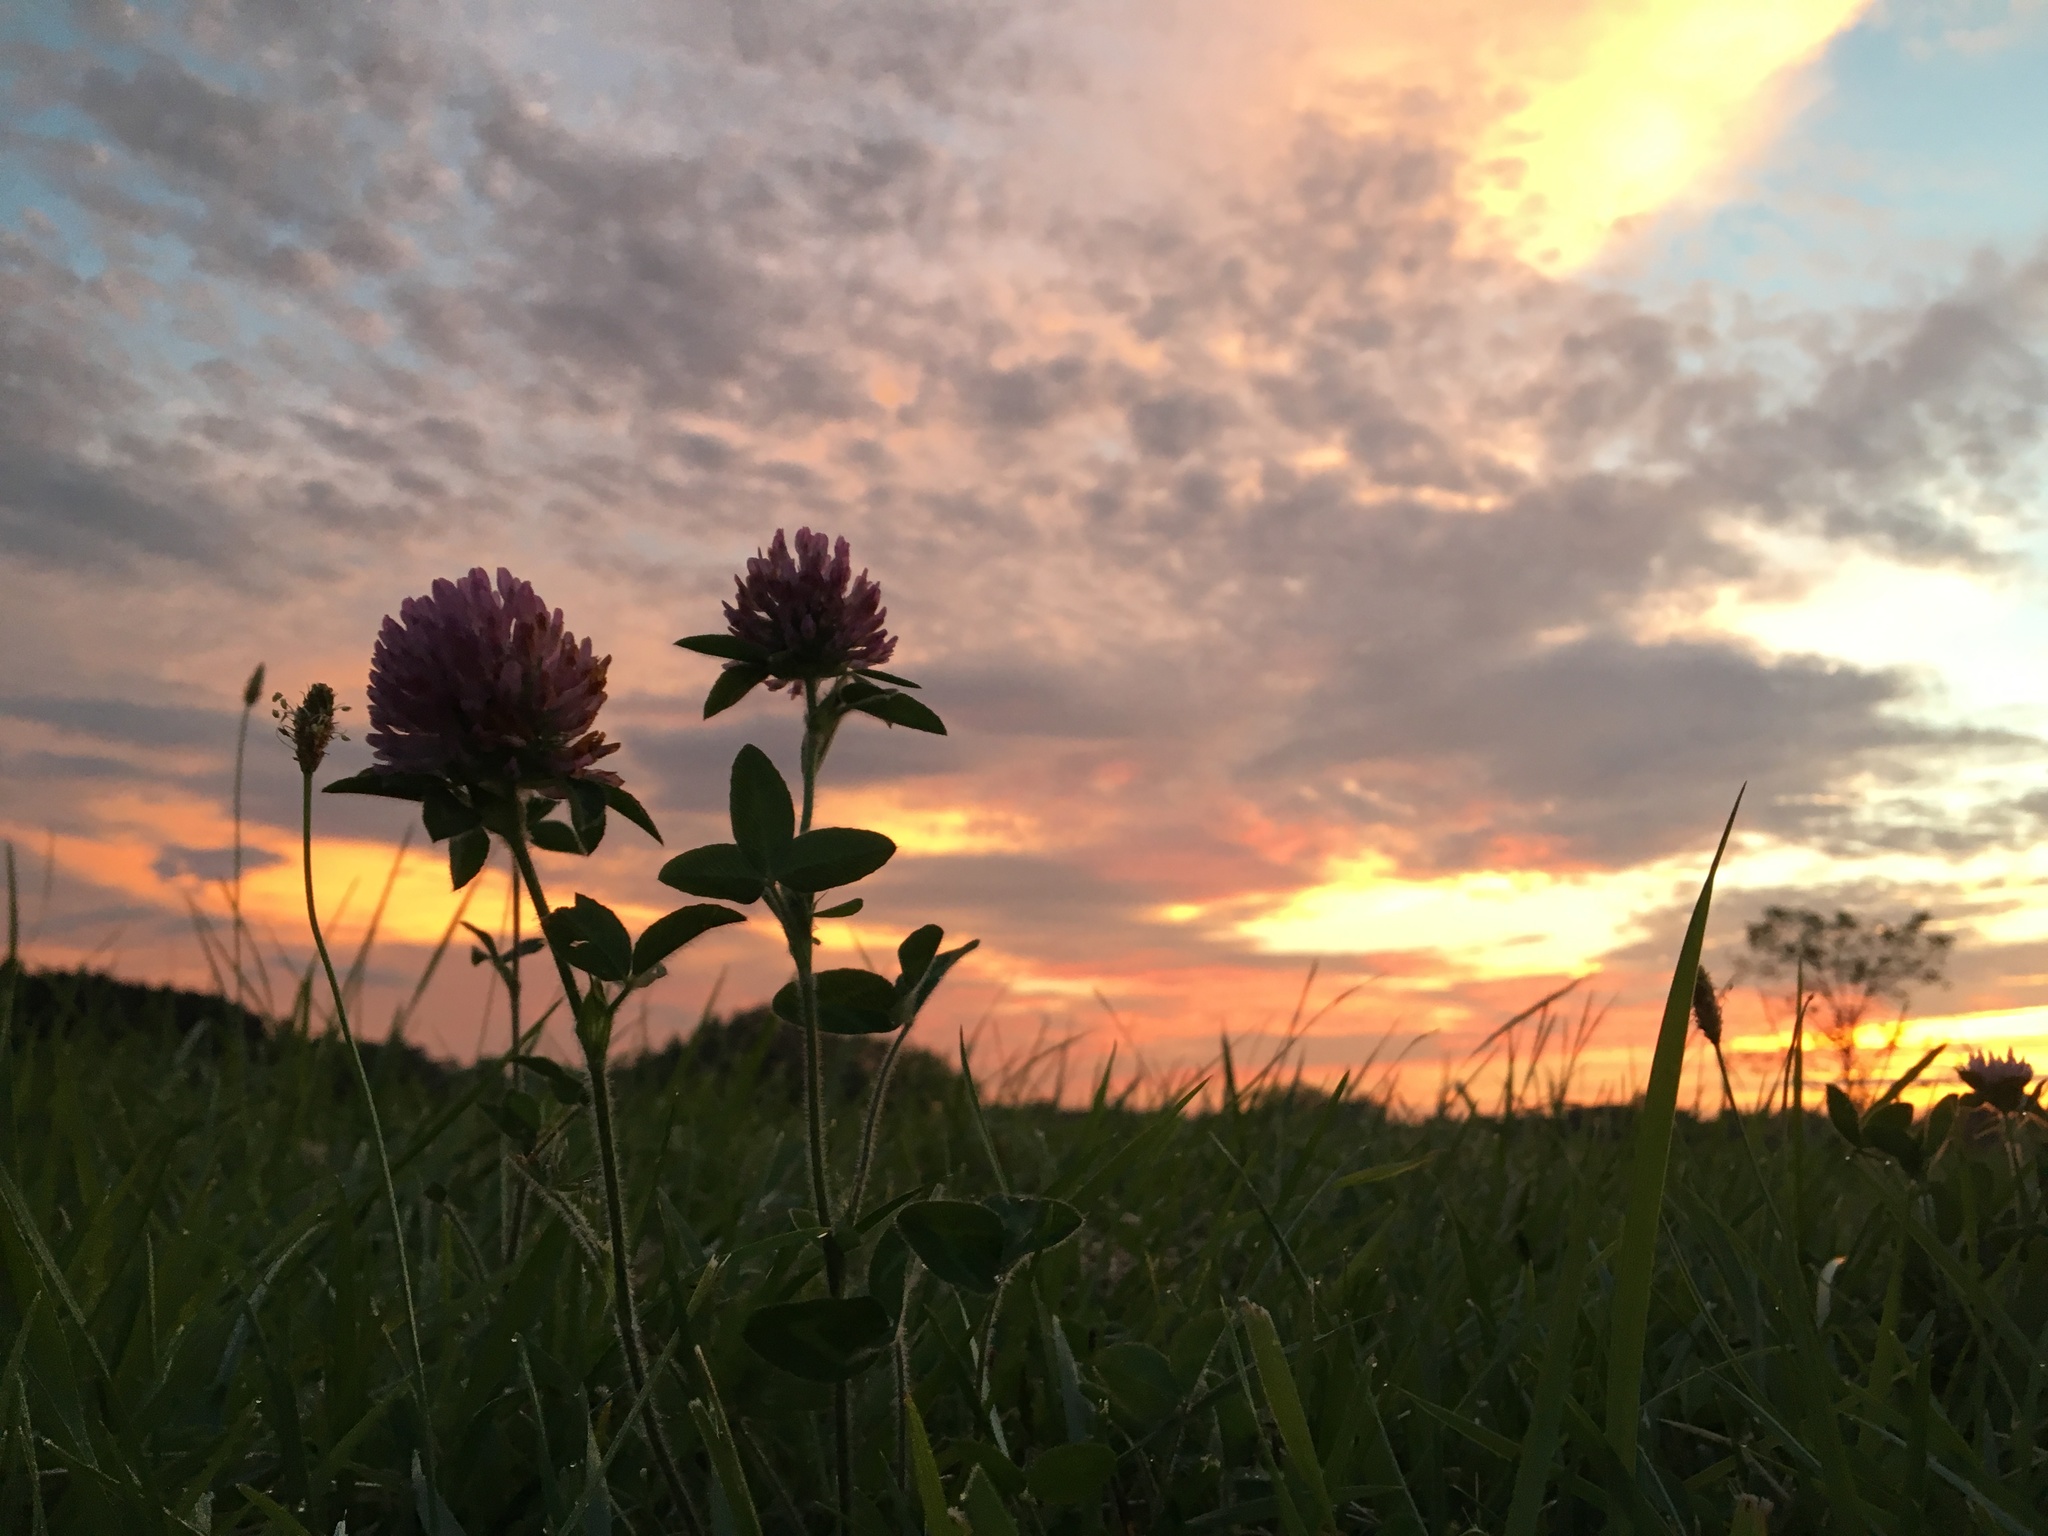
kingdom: Plantae
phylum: Tracheophyta
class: Magnoliopsida
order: Fabales
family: Fabaceae
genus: Trifolium
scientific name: Trifolium pratense
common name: Red clover
